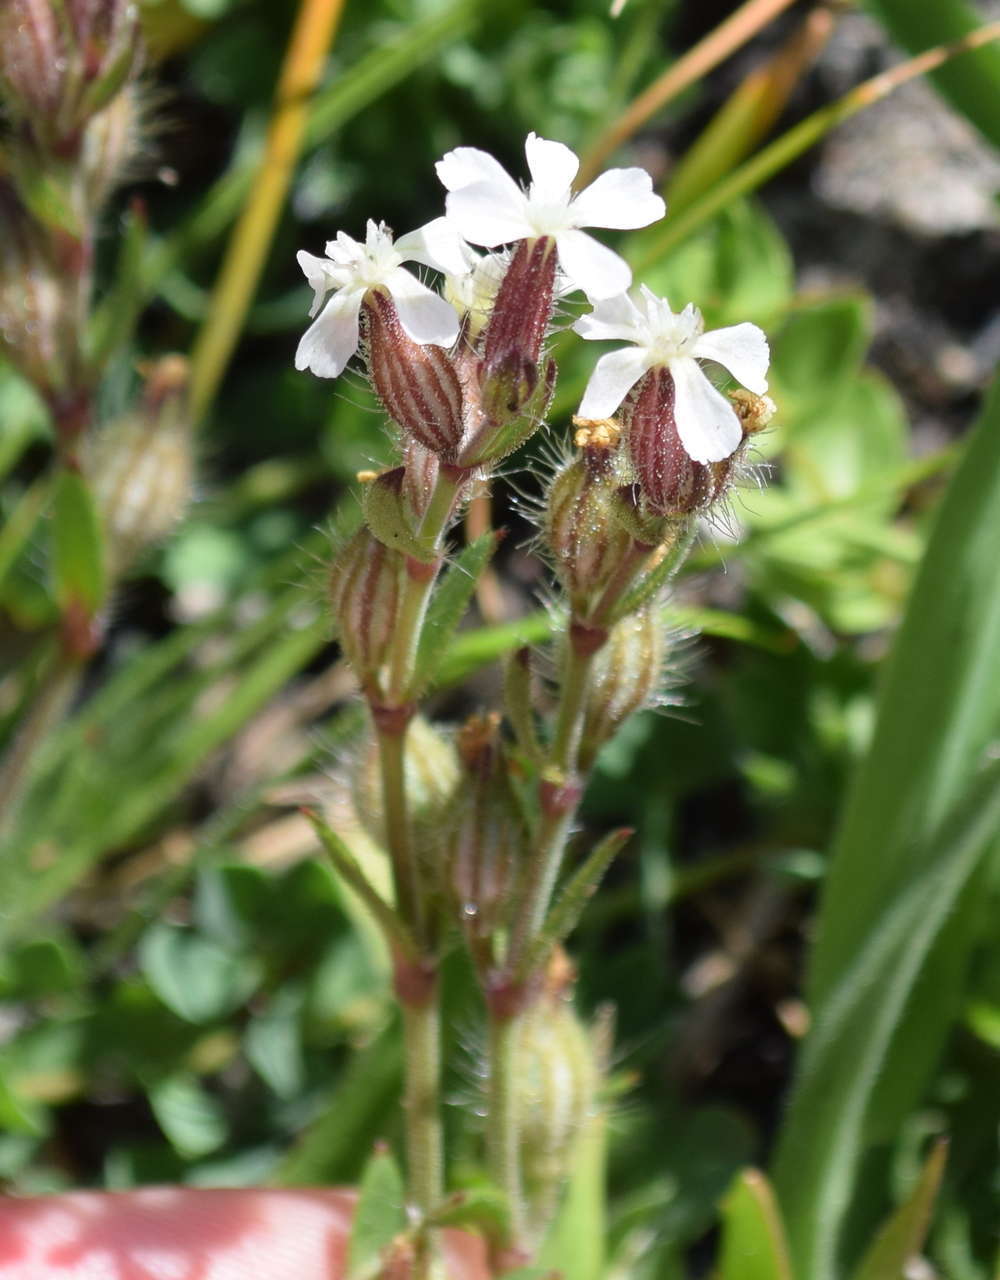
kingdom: Plantae
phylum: Tracheophyta
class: Magnoliopsida
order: Caryophyllales
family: Caryophyllaceae
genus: Silene
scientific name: Silene gallica
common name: Small-flowered catchfly
